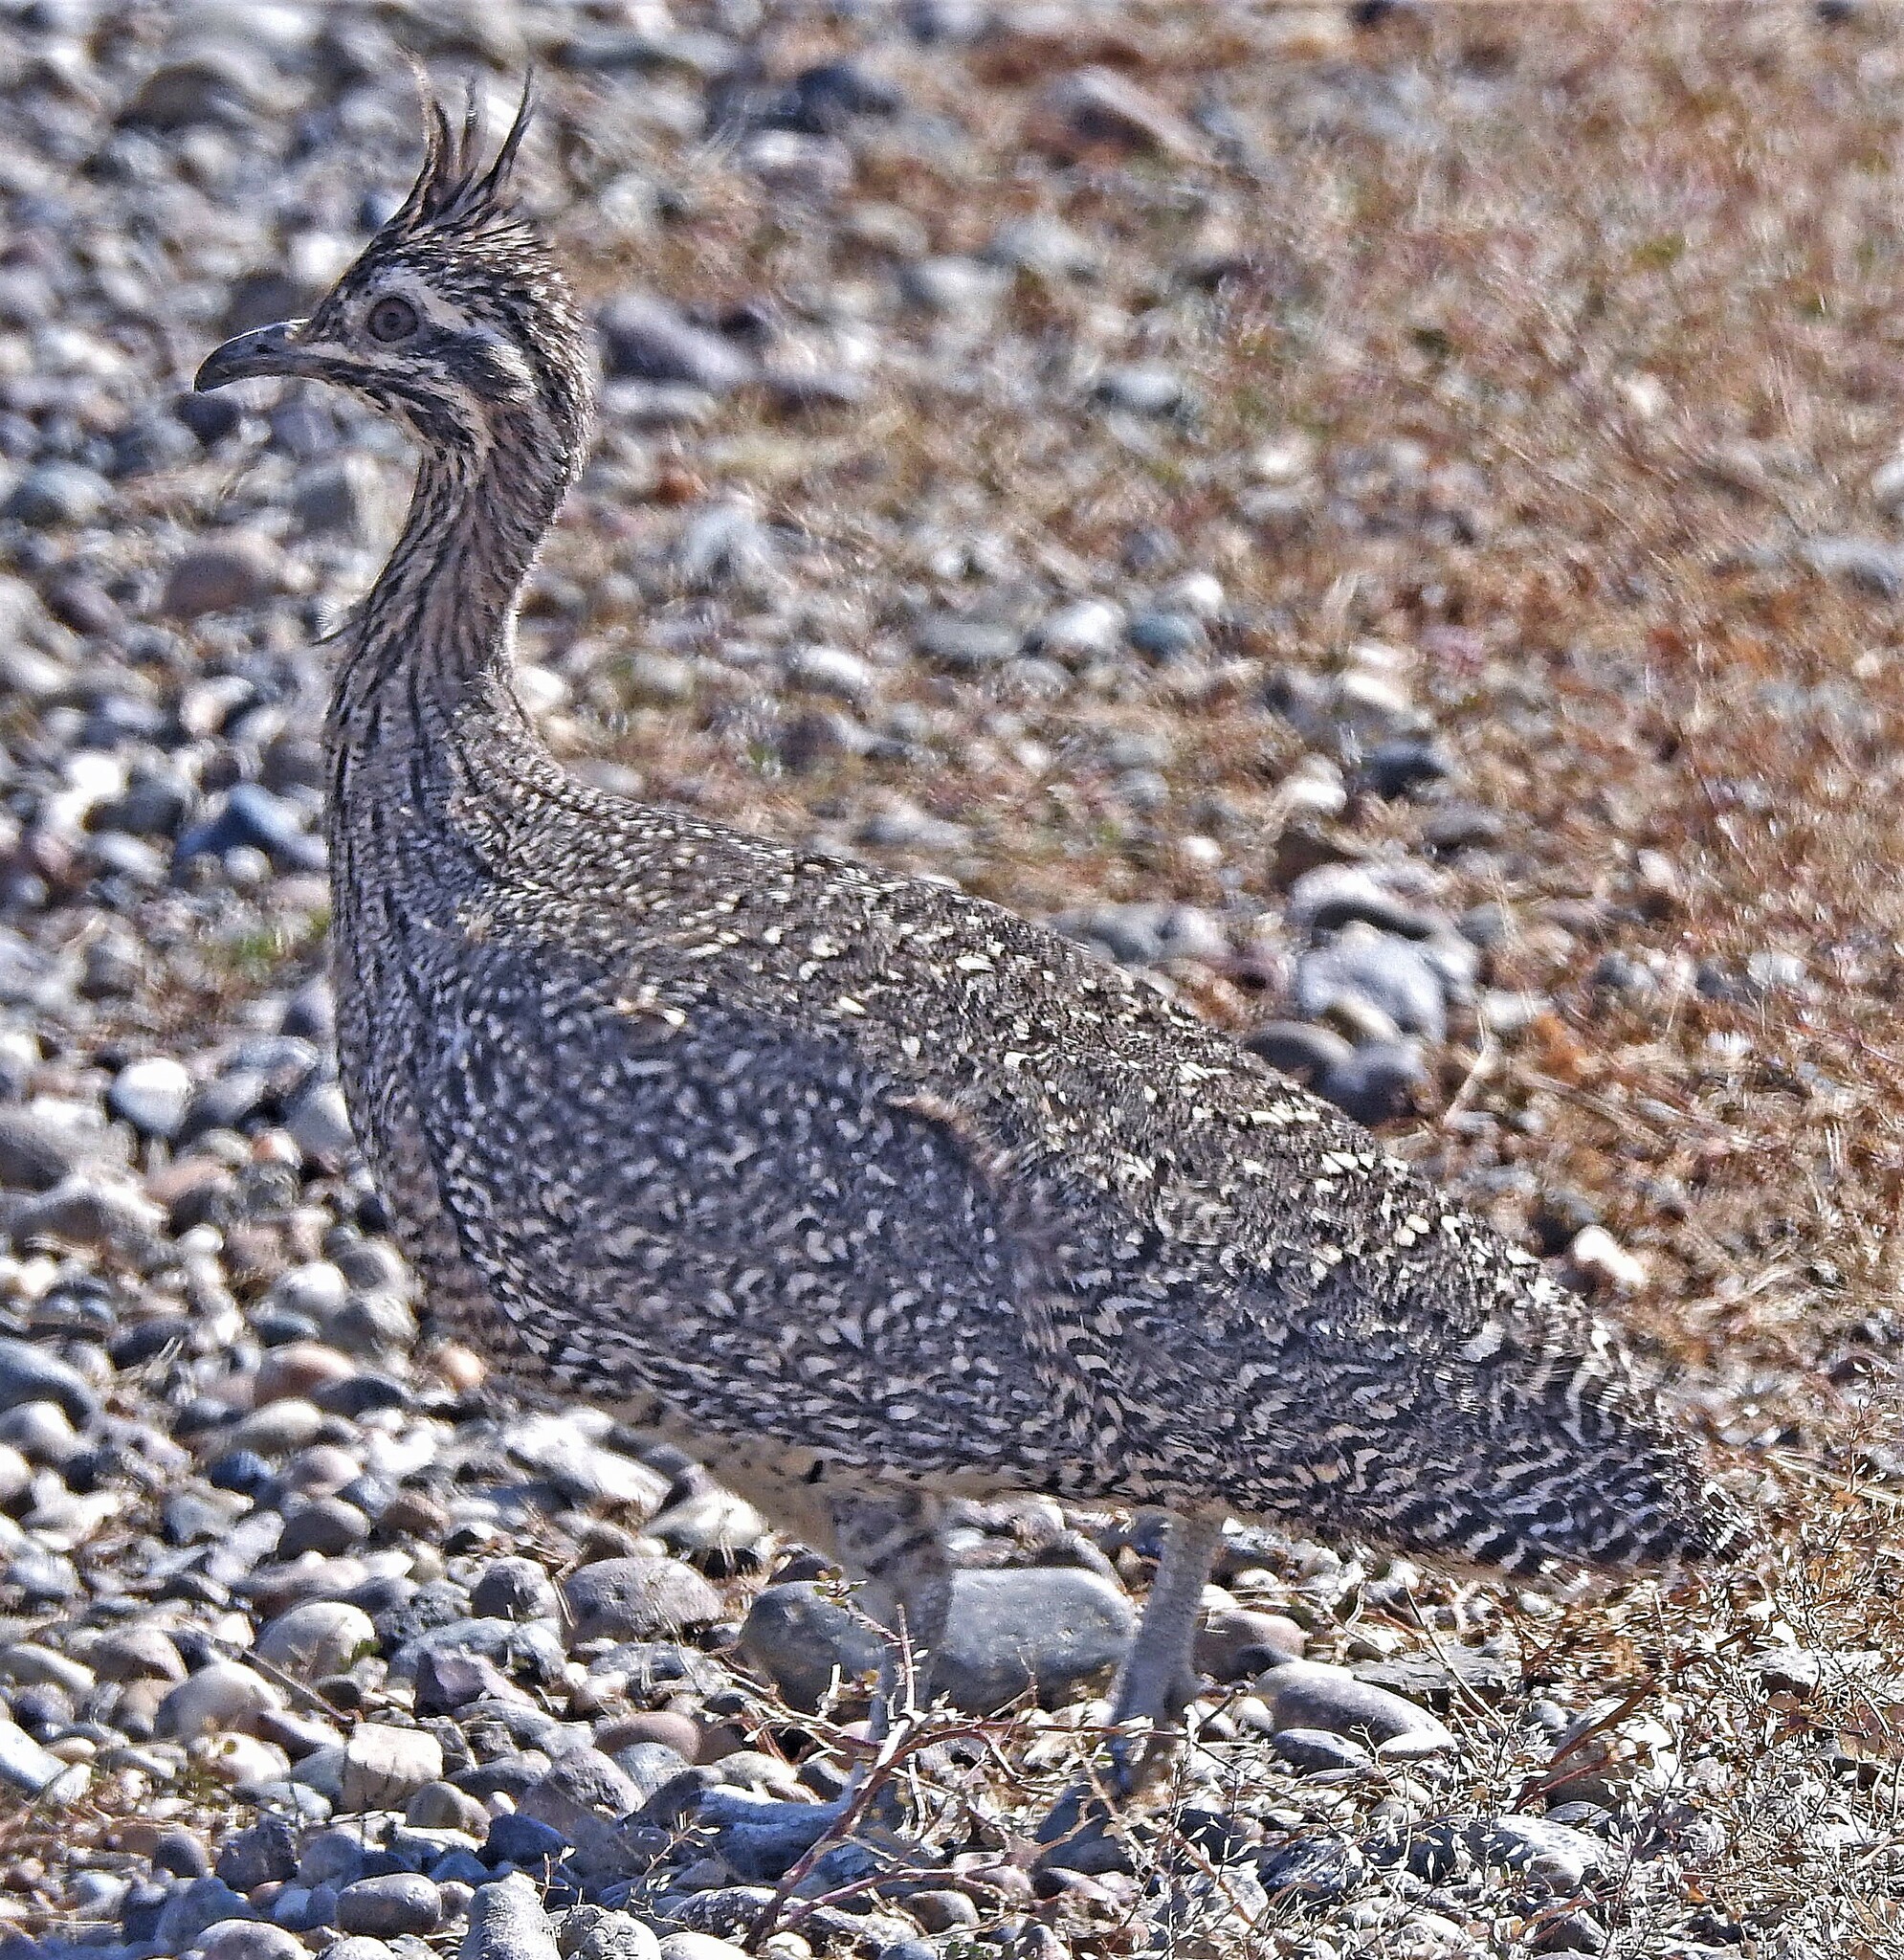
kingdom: Animalia
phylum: Chordata
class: Aves
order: Tinamiformes
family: Tinamidae
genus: Eudromia
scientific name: Eudromia elegans
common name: Elegant crested tinamou
